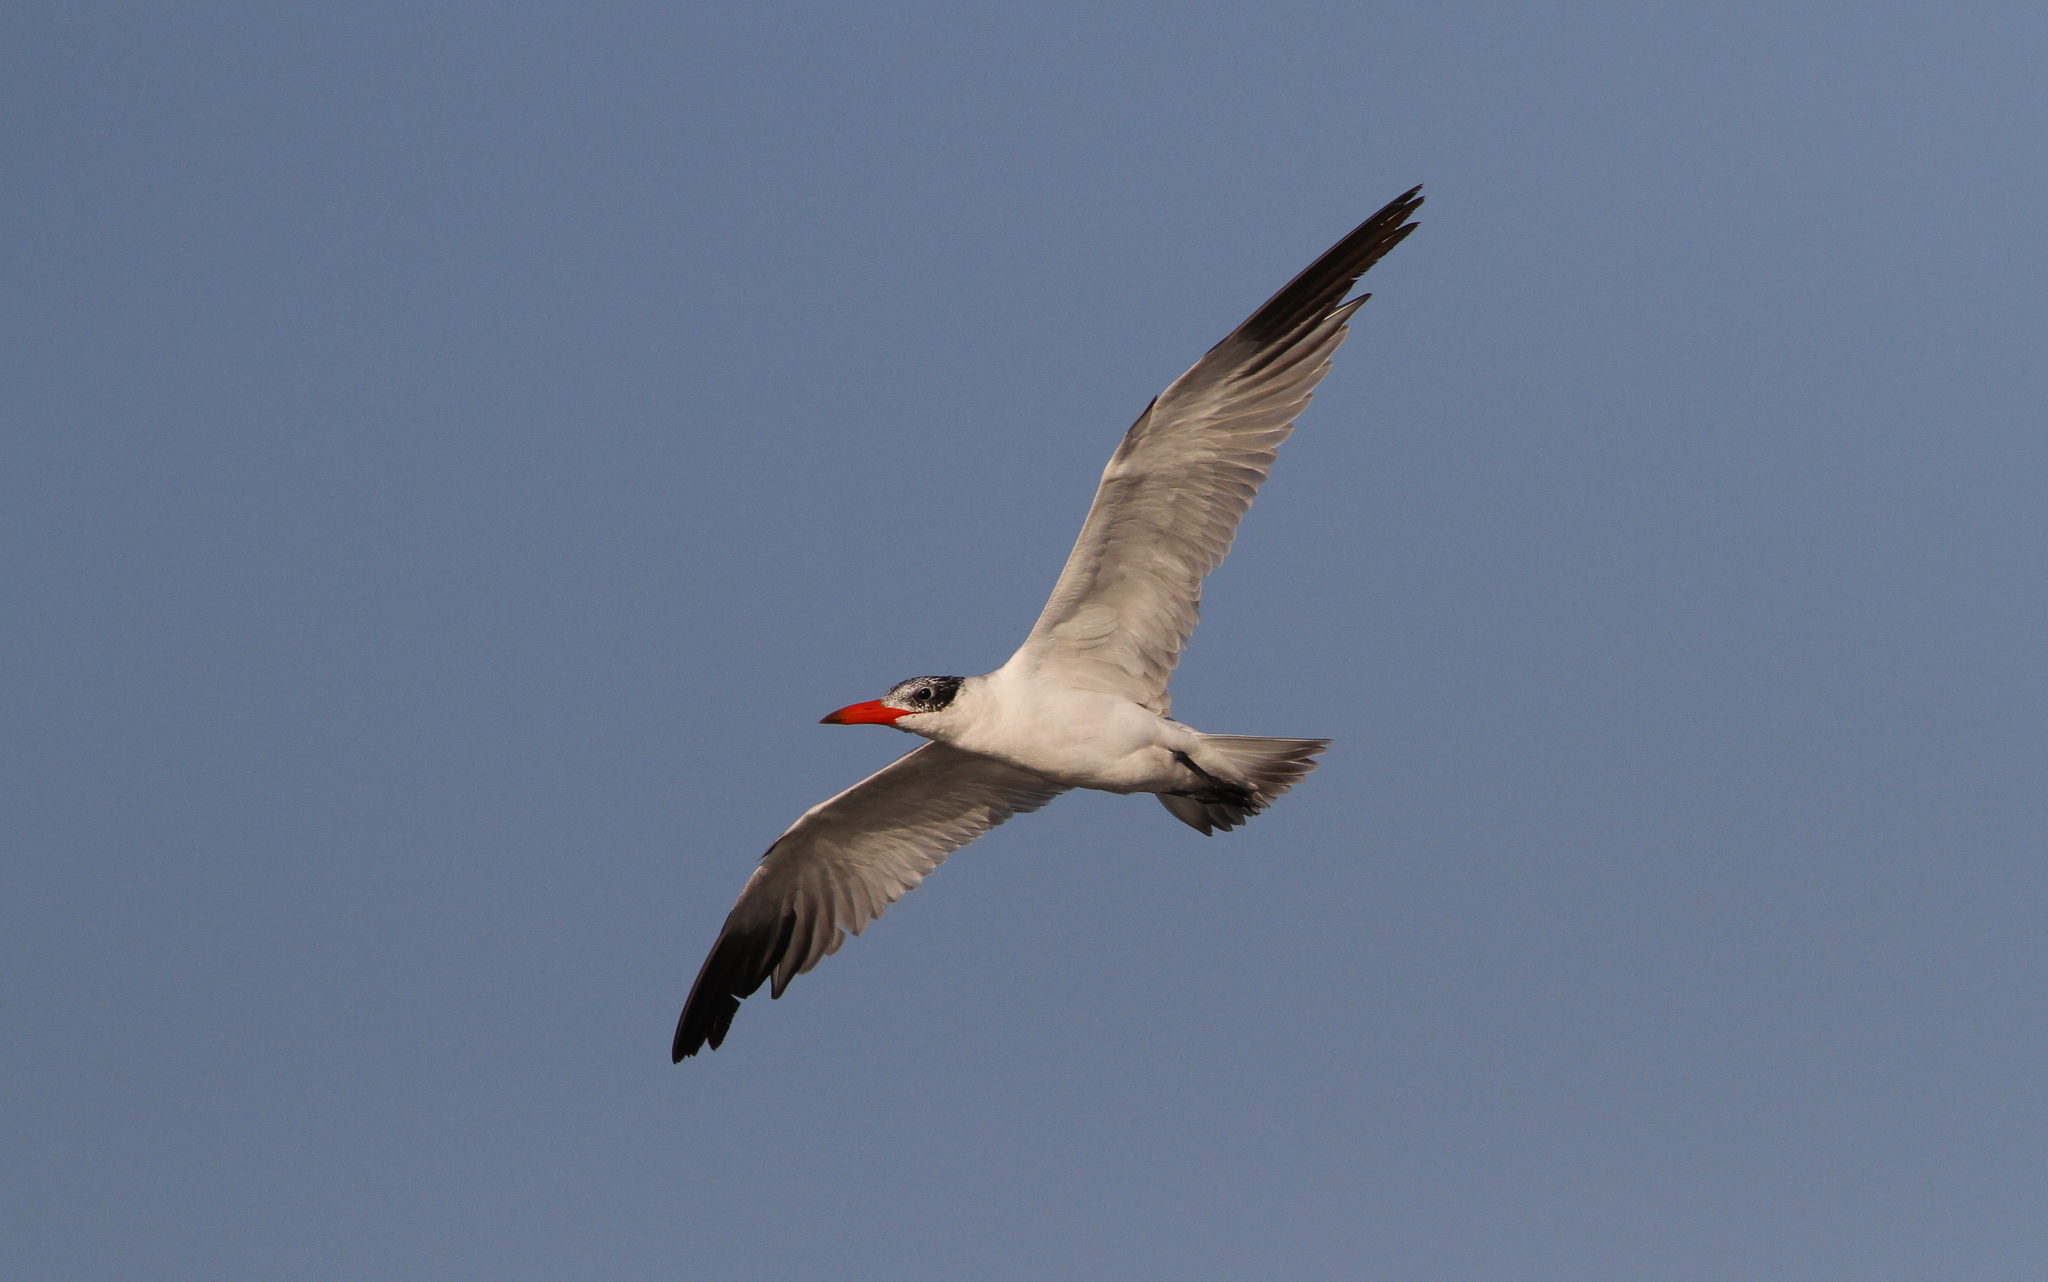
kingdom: Animalia
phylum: Chordata
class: Aves
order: Charadriiformes
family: Laridae
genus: Hydroprogne
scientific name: Hydroprogne caspia
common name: Caspian tern
